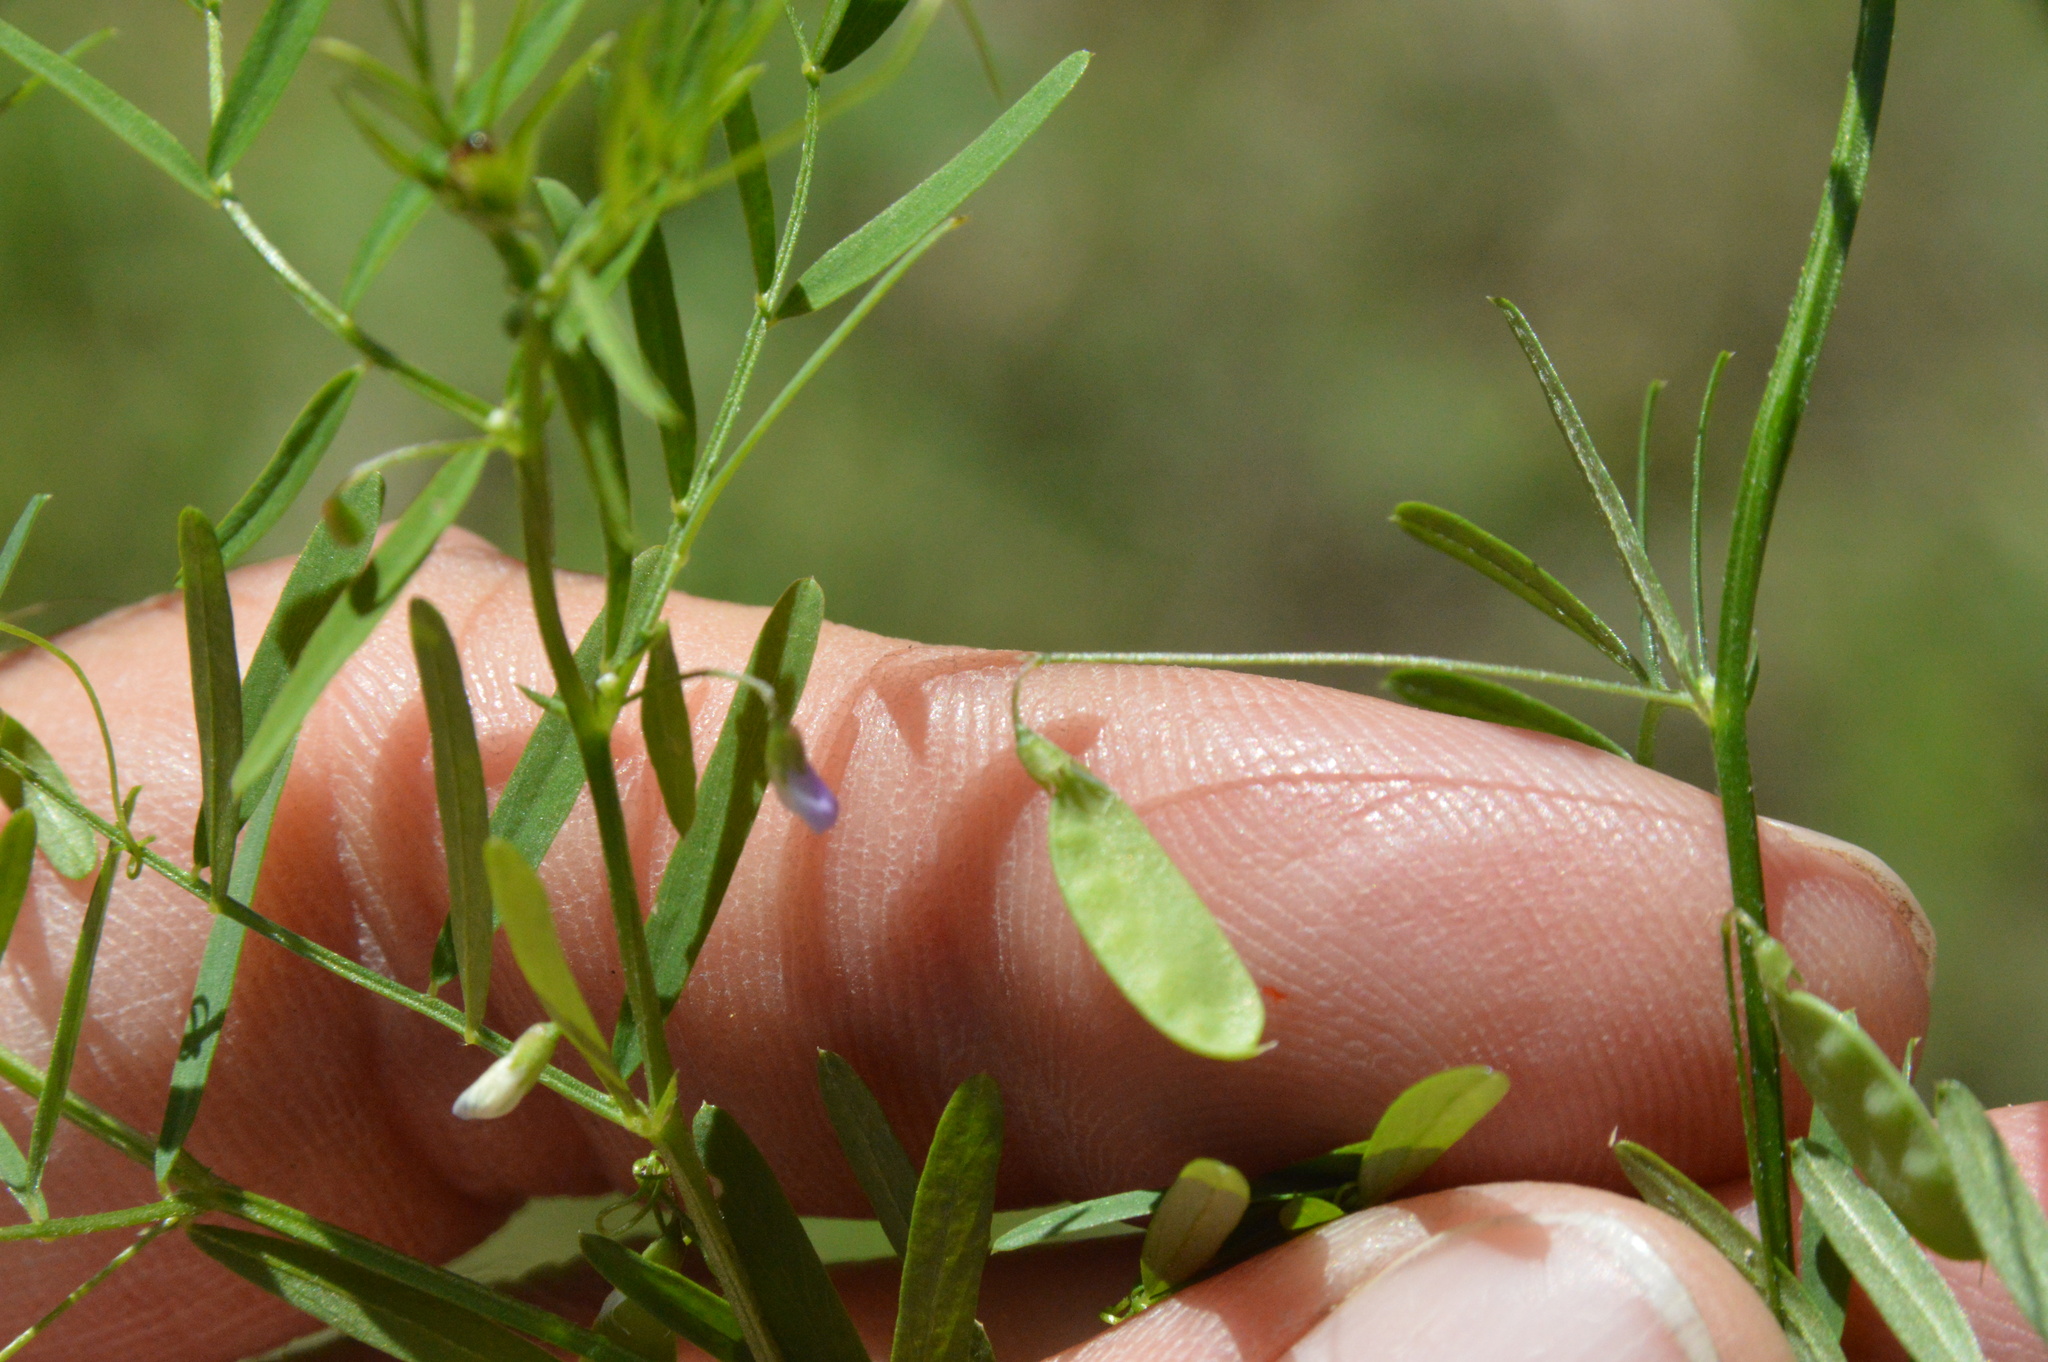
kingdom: Plantae
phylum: Tracheophyta
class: Magnoliopsida
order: Fabales
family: Fabaceae
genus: Vicia
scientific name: Vicia tetrasperma
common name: Smooth tare
